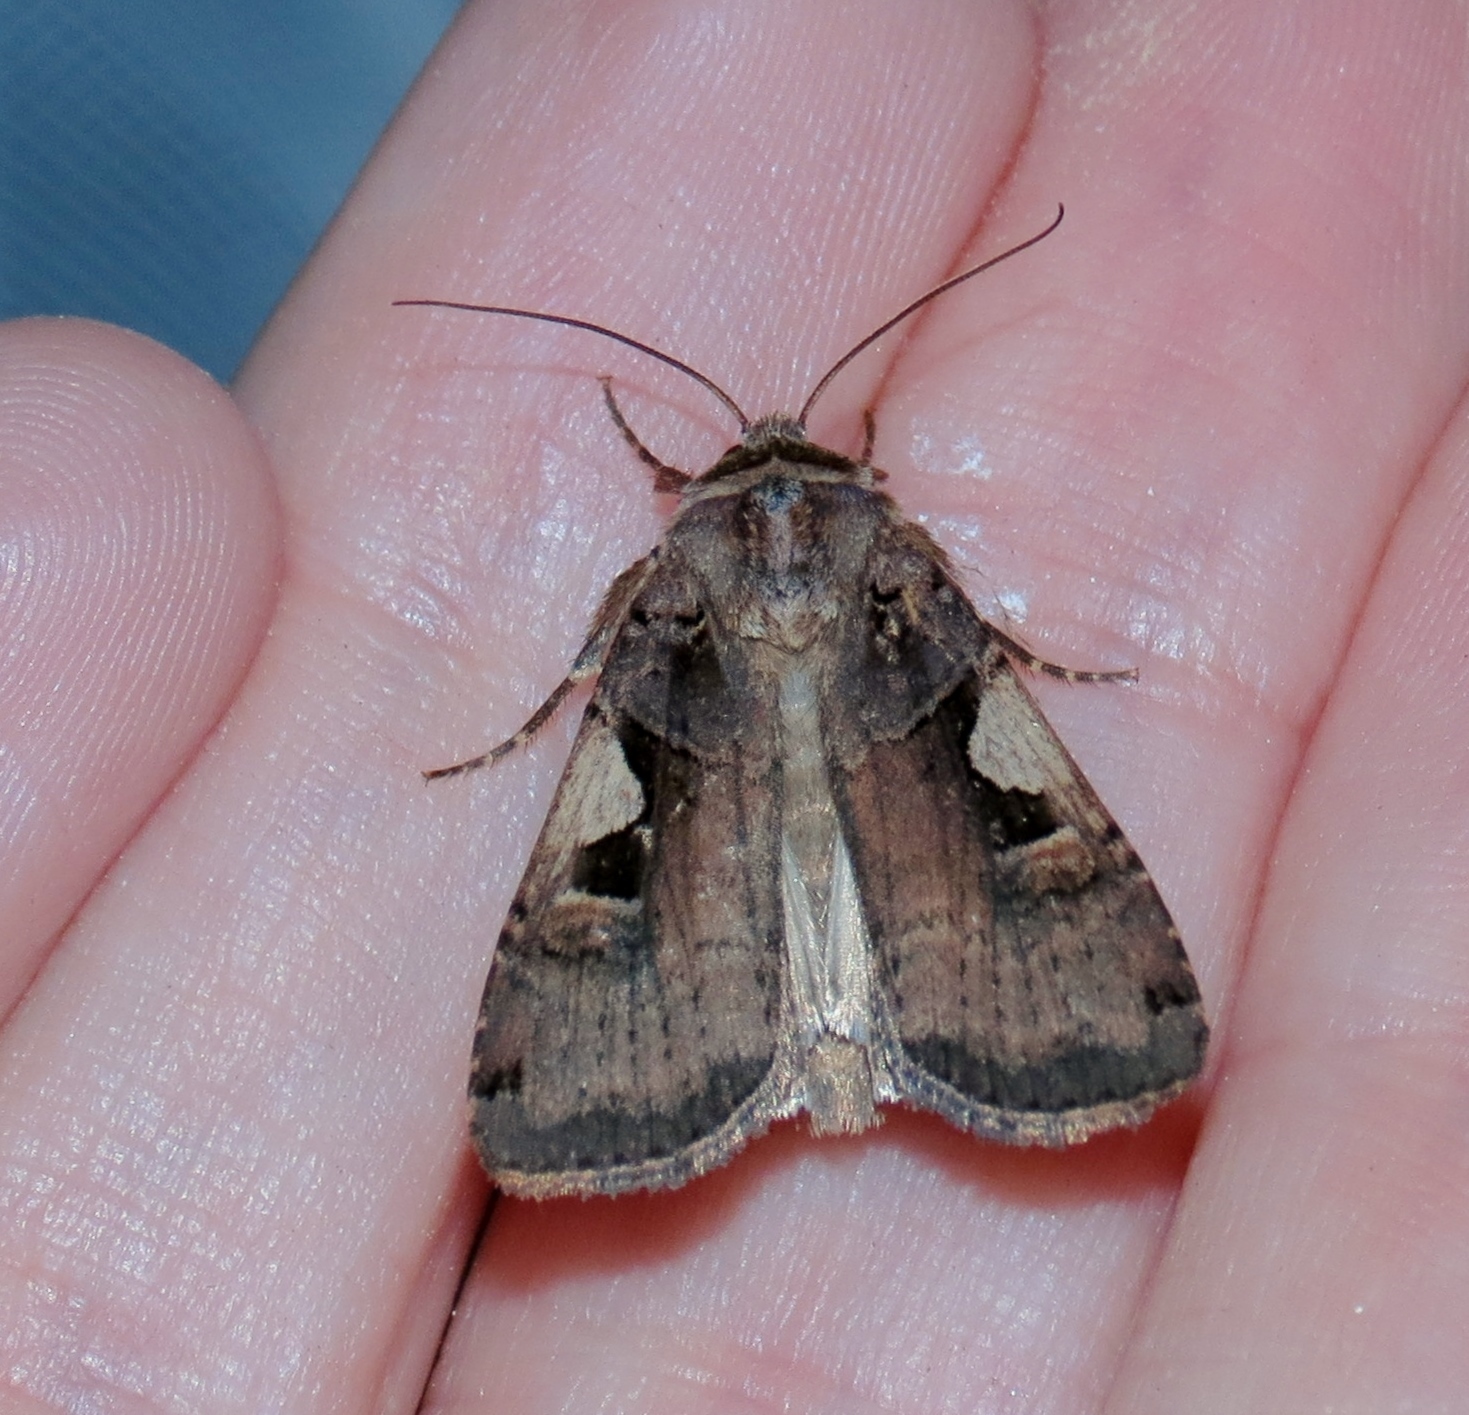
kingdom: Animalia
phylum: Arthropoda
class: Insecta
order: Lepidoptera
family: Noctuidae
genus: Xestia
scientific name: Xestia dolosa
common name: Cutworm moth
